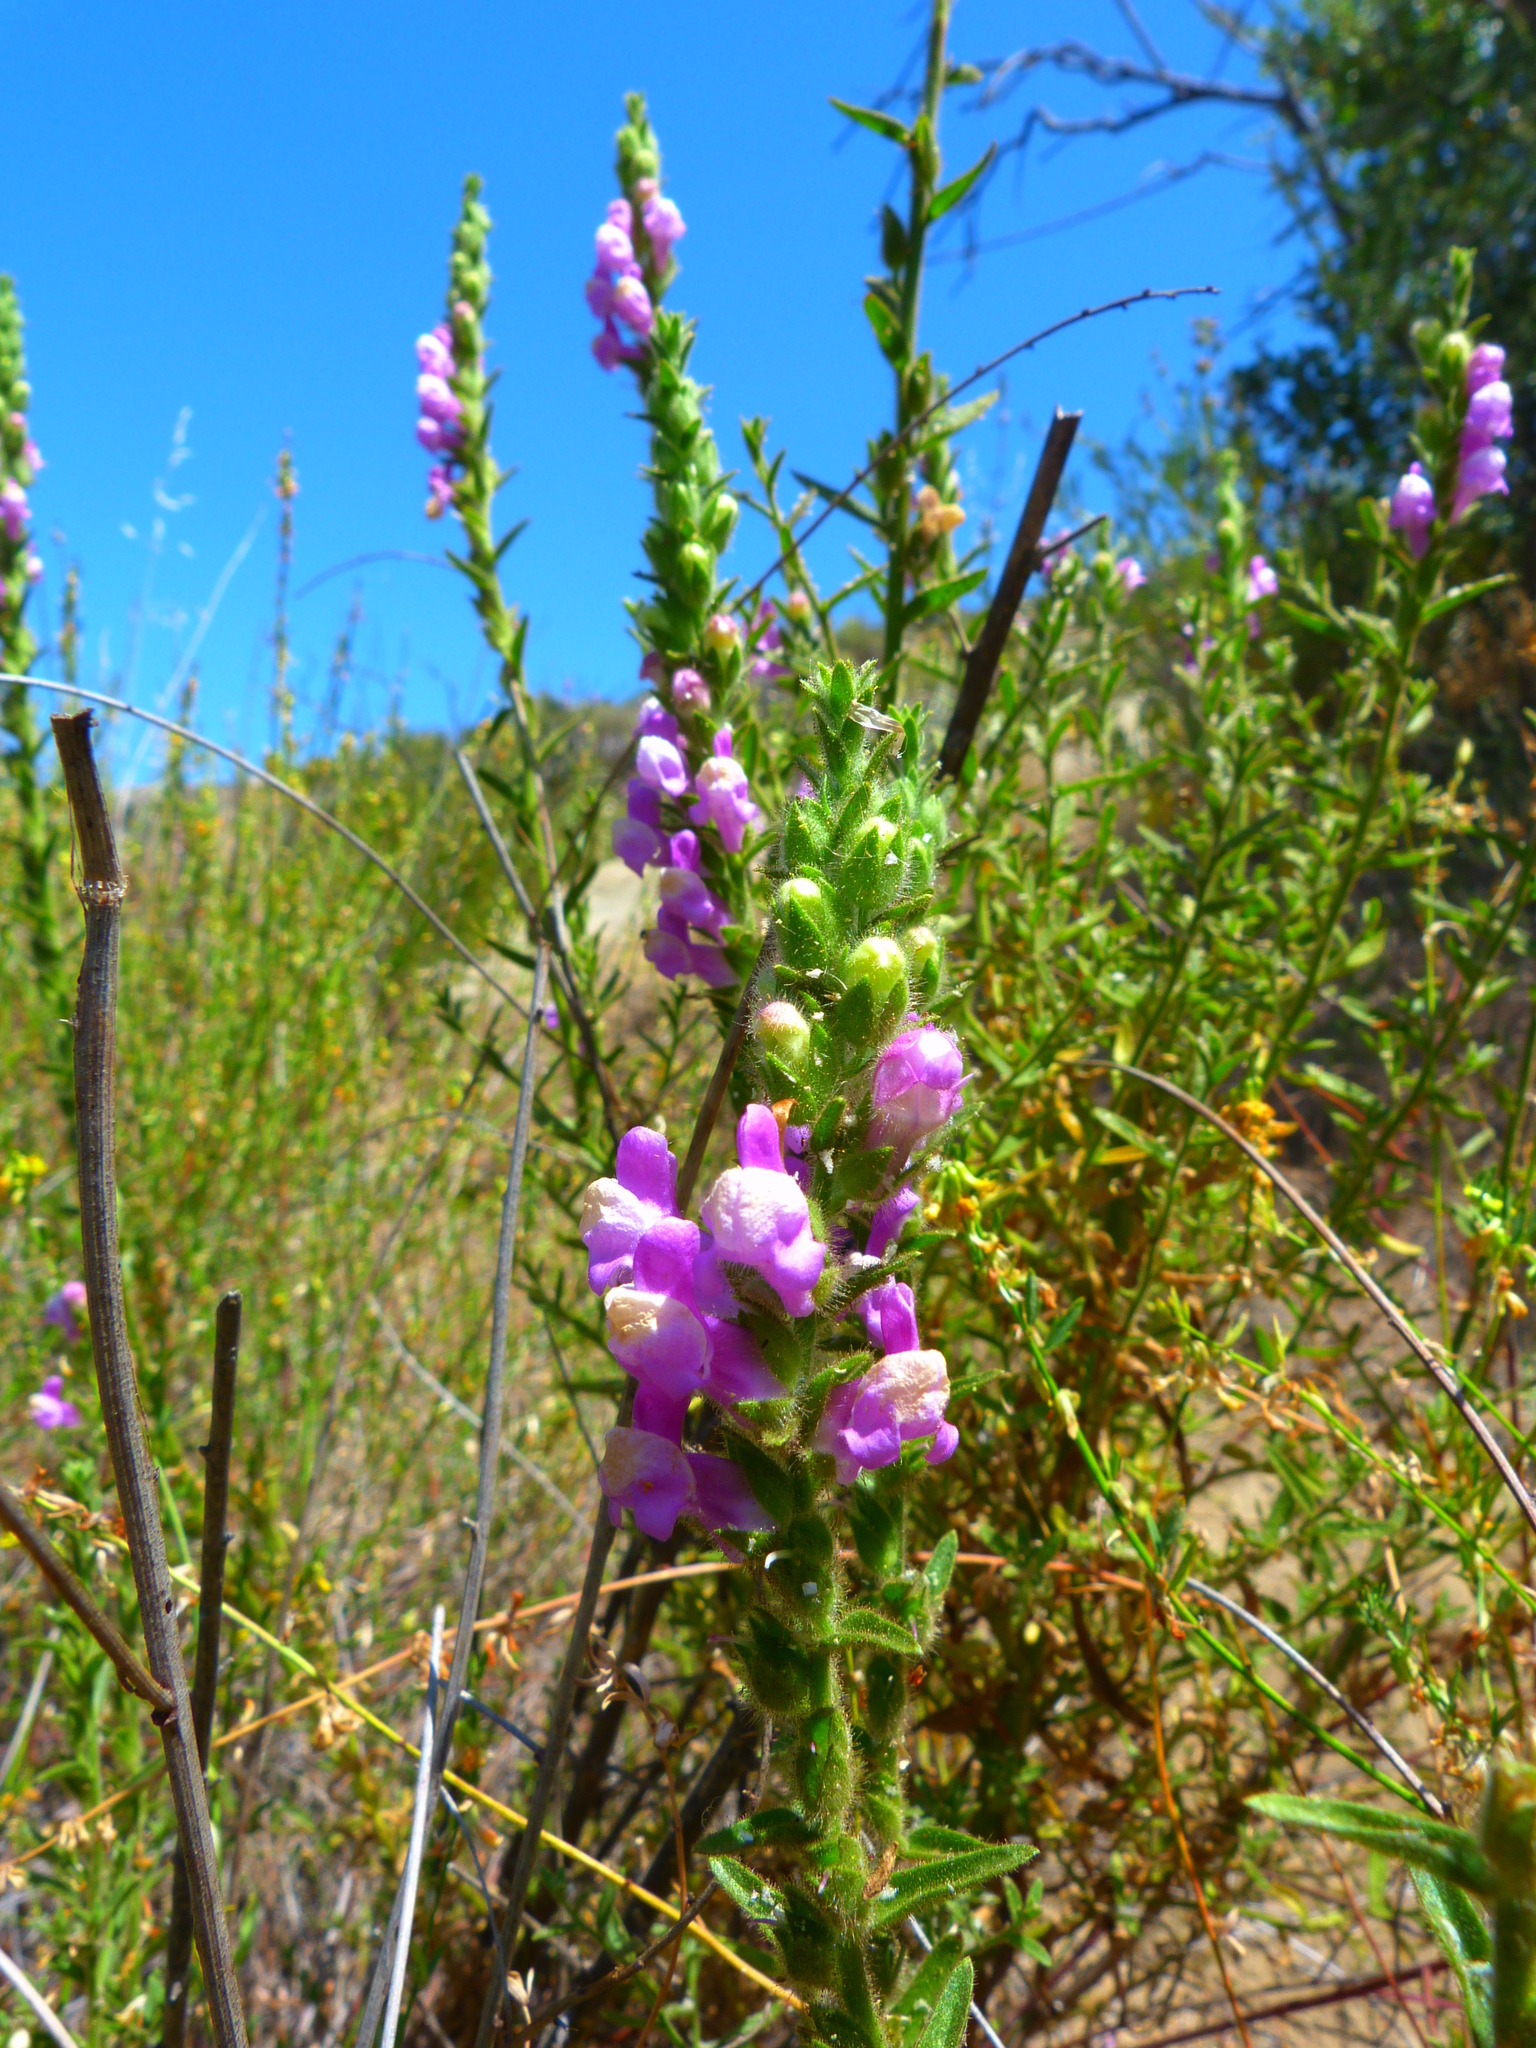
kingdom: Plantae
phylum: Tracheophyta
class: Magnoliopsida
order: Lamiales
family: Plantaginaceae
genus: Sairocarpus
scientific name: Sairocarpus multiflorus
